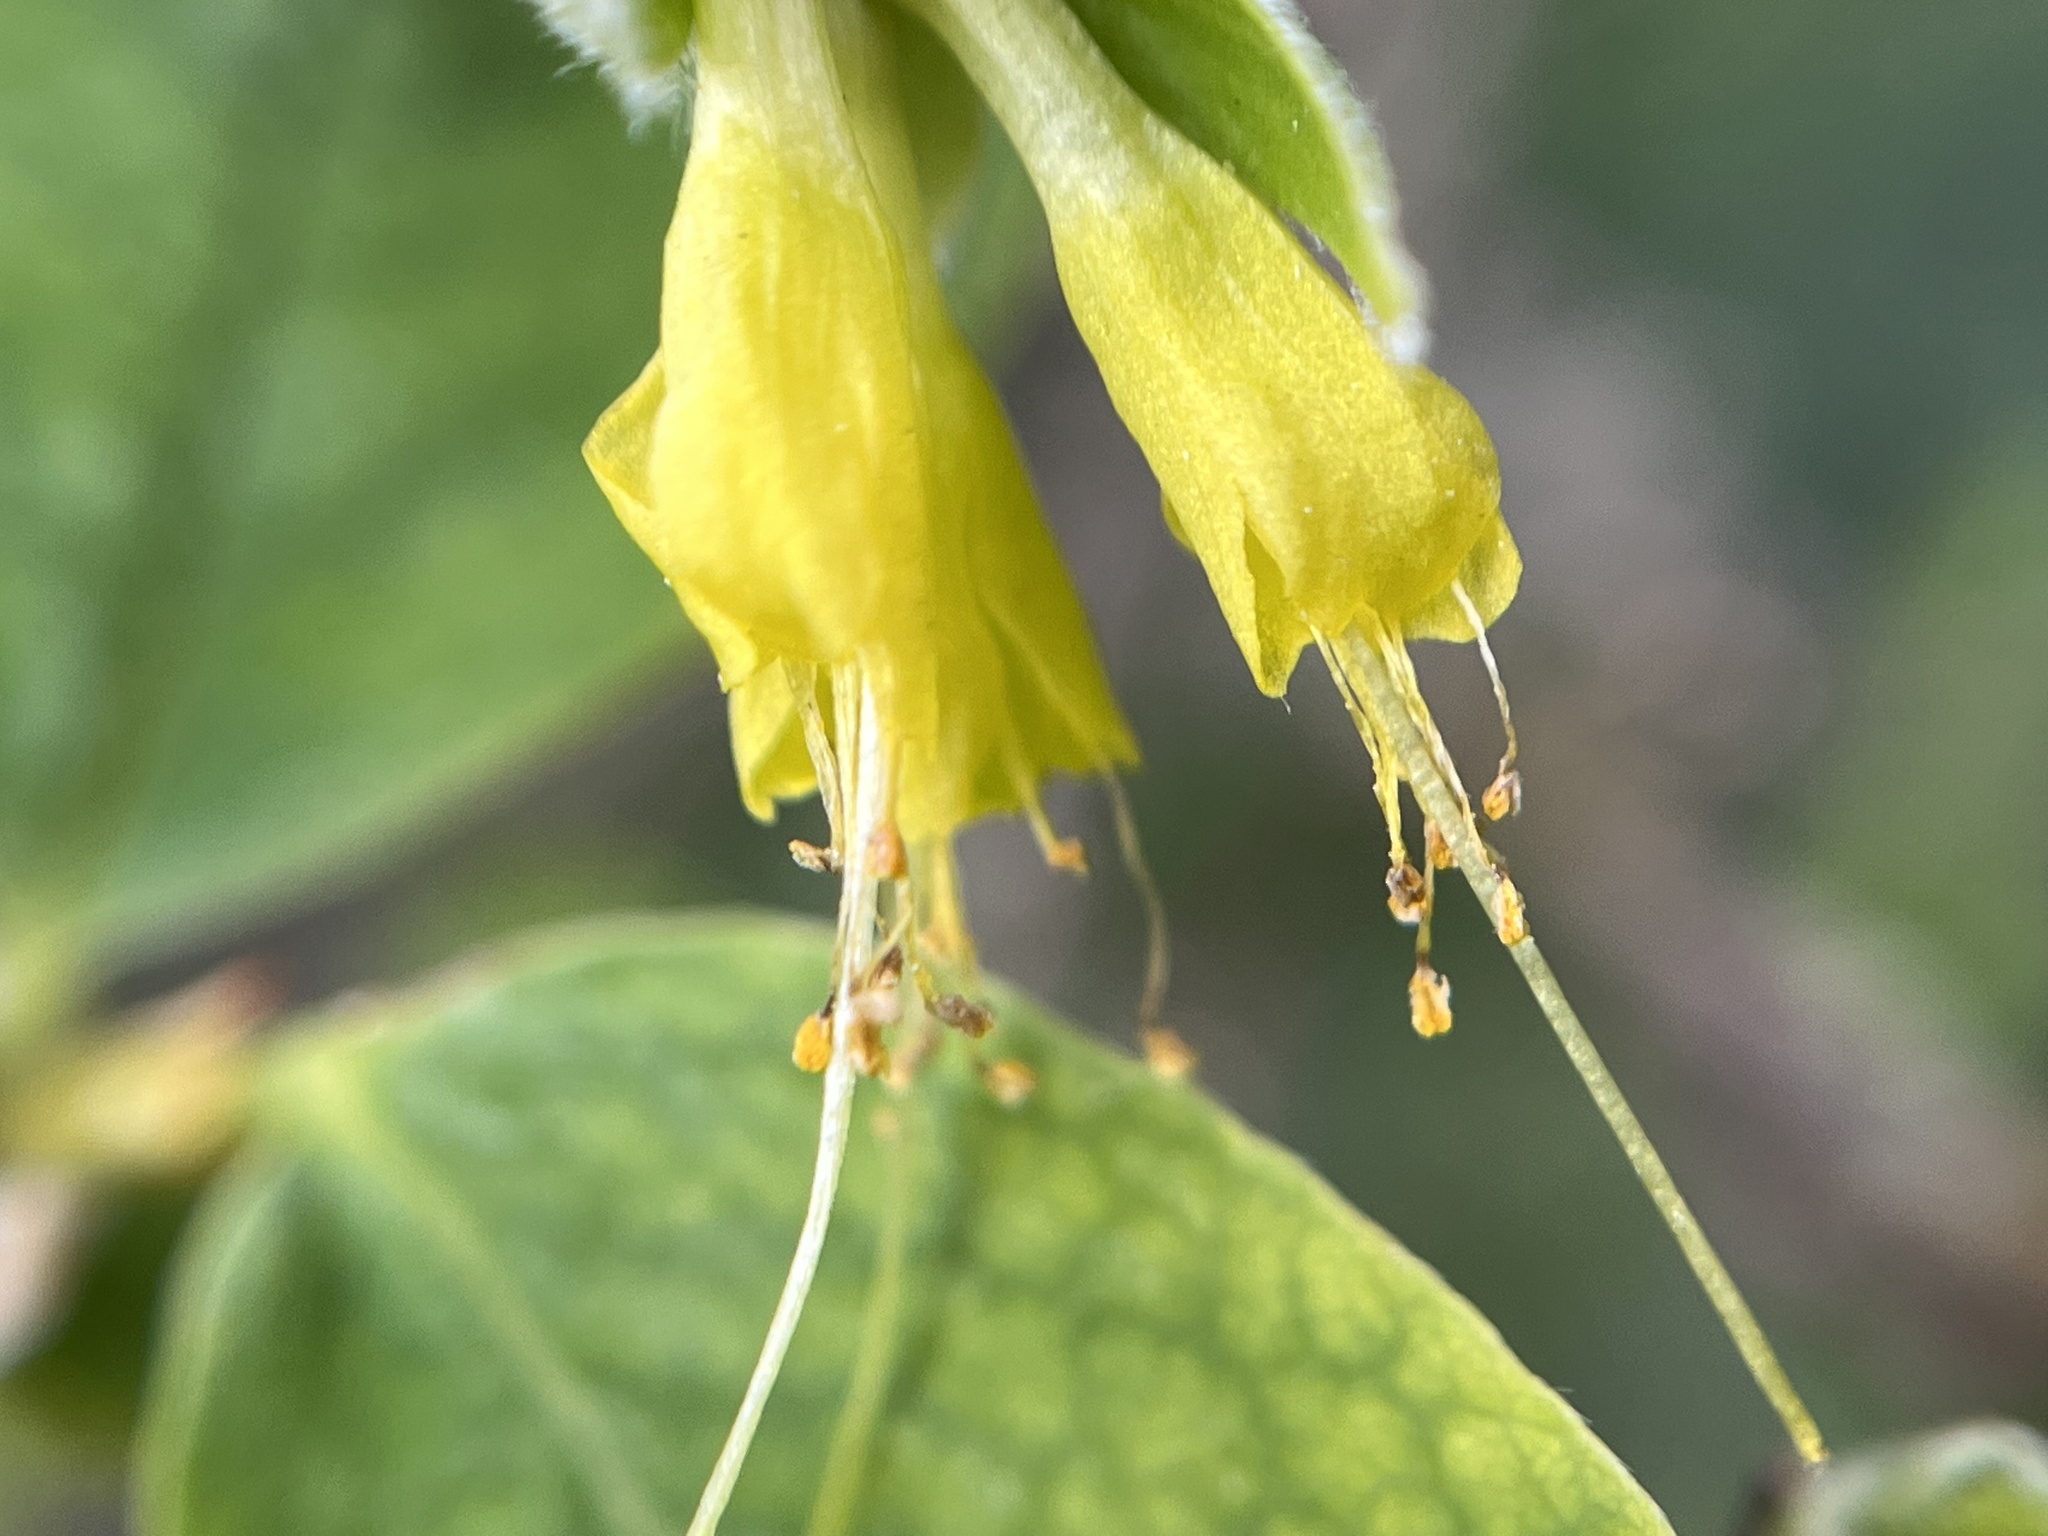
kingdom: Plantae
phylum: Tracheophyta
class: Magnoliopsida
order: Malvales
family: Thymelaeaceae
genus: Dirca
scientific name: Dirca occidentalis
